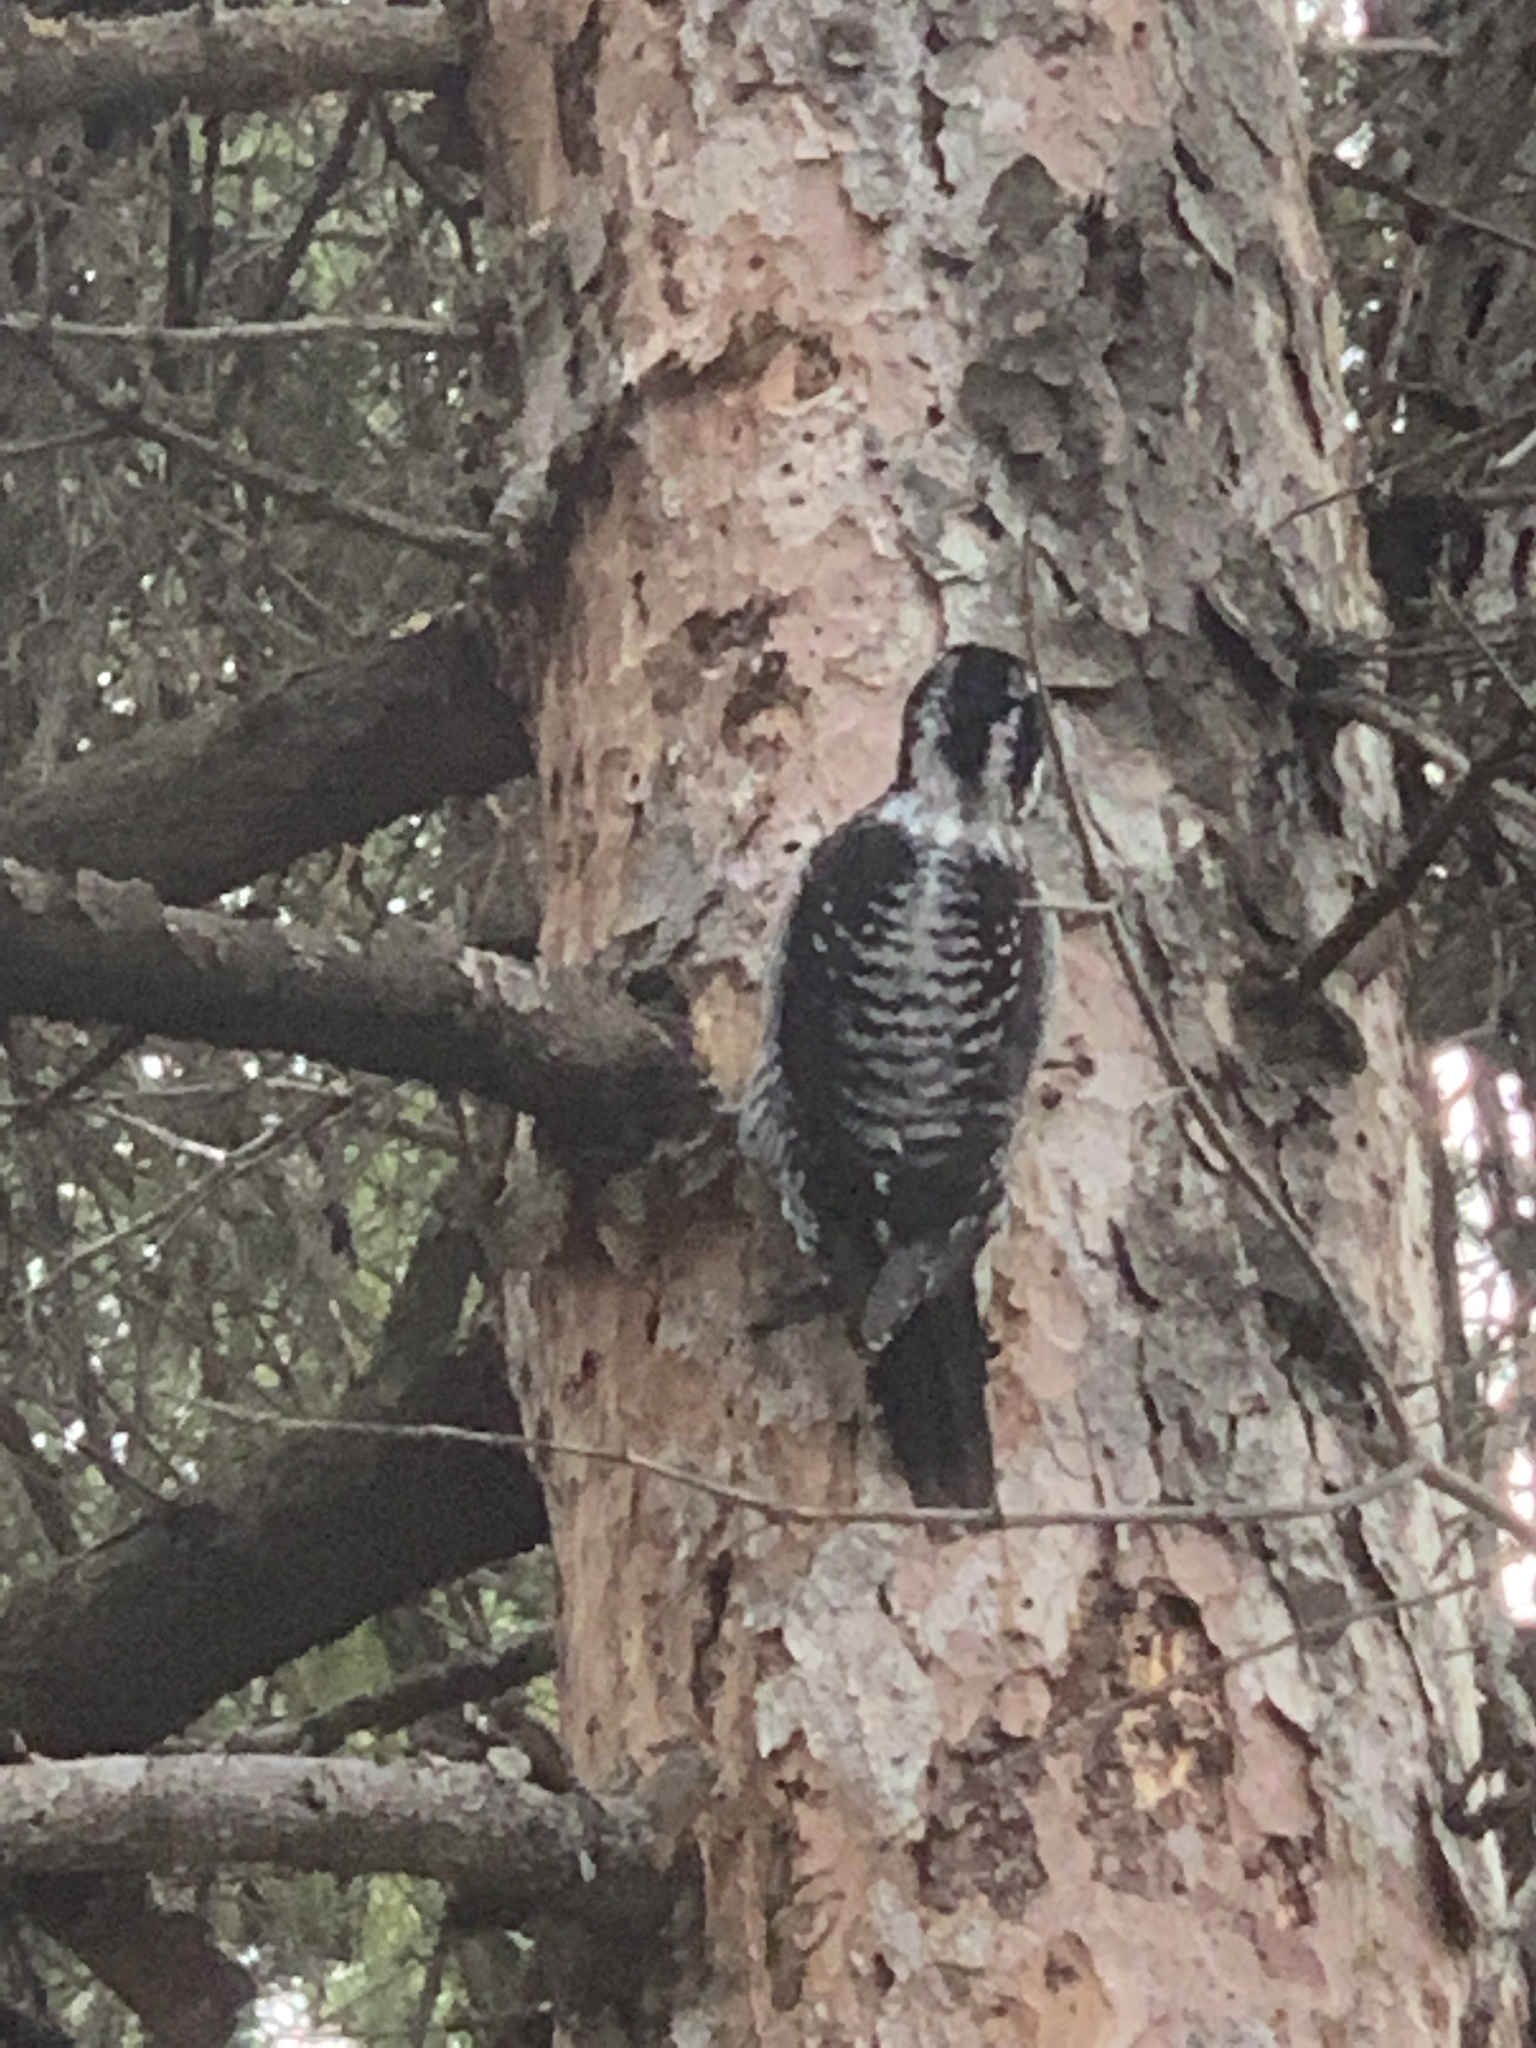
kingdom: Animalia
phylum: Chordata
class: Aves
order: Piciformes
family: Picidae
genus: Picoides
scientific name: Picoides dorsalis
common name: American three-toed woodpecker
